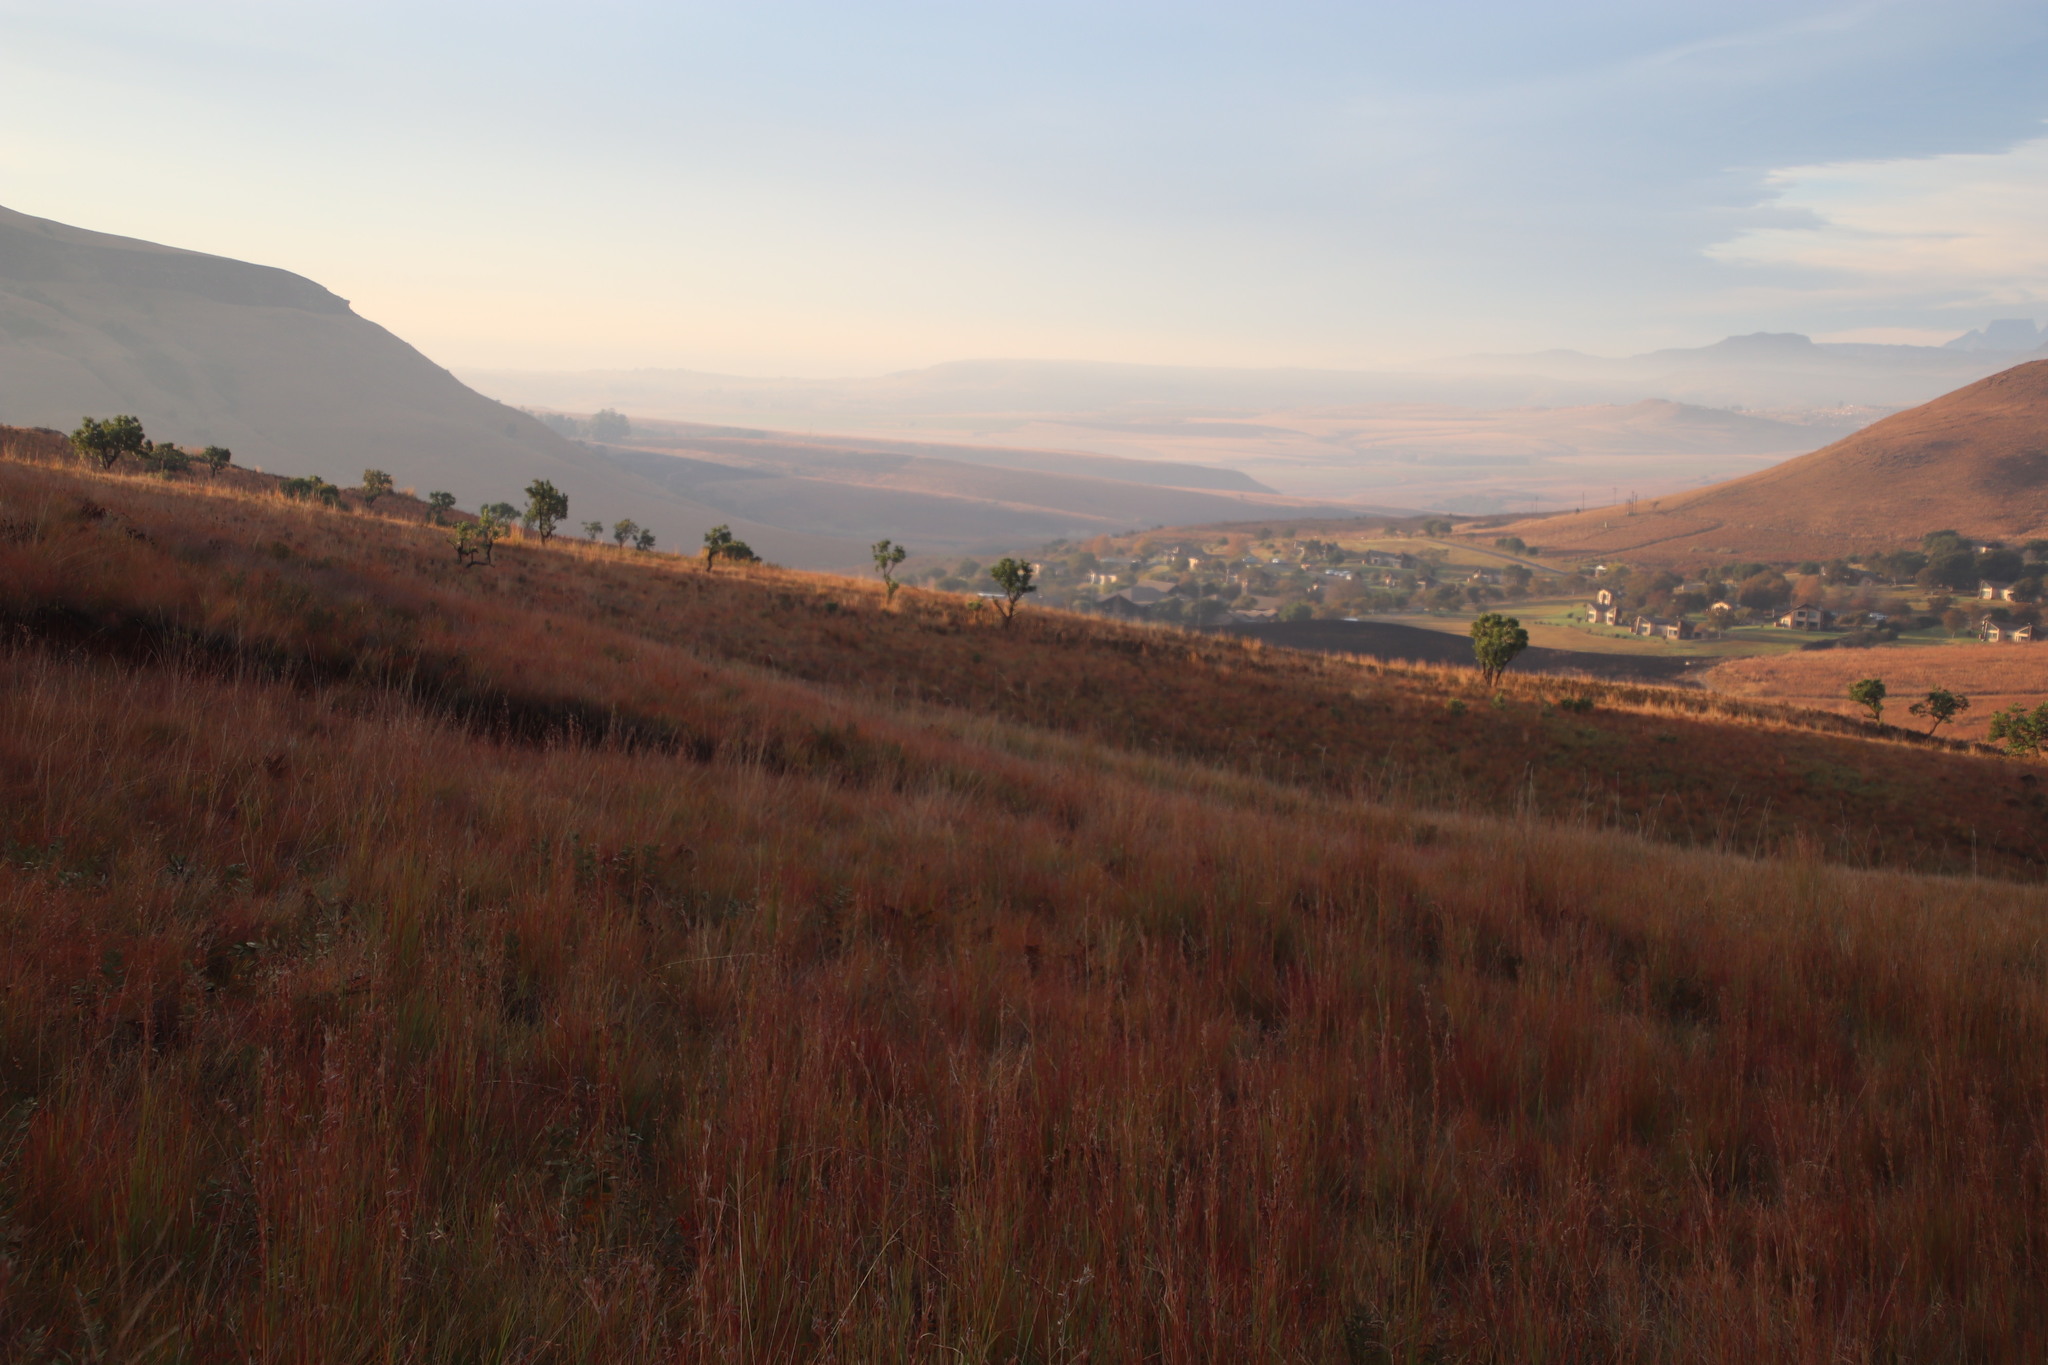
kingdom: Plantae
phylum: Tracheophyta
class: Magnoliopsida
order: Proteales
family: Proteaceae
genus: Protea
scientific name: Protea caffra
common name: Common sugarbush
